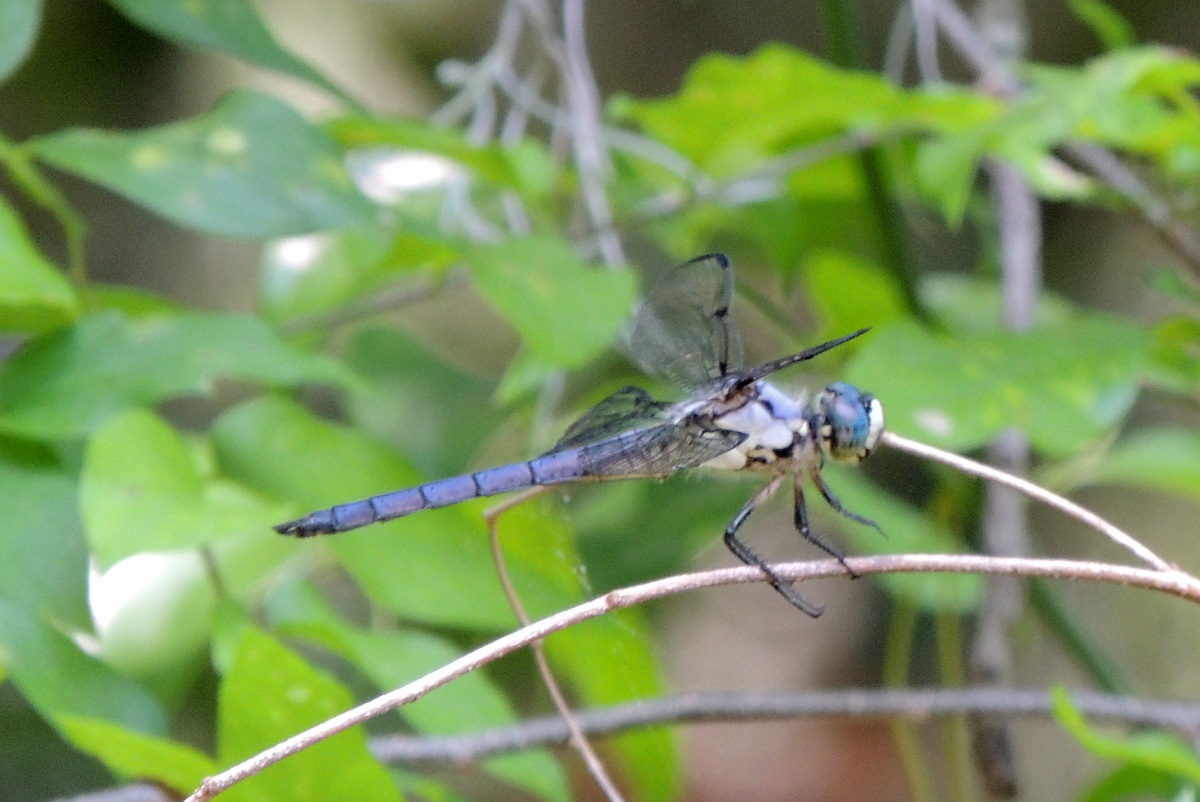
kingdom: Animalia
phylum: Arthropoda
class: Insecta
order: Odonata
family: Libellulidae
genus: Libellula
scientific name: Libellula vibrans
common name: Great blue skimmer
